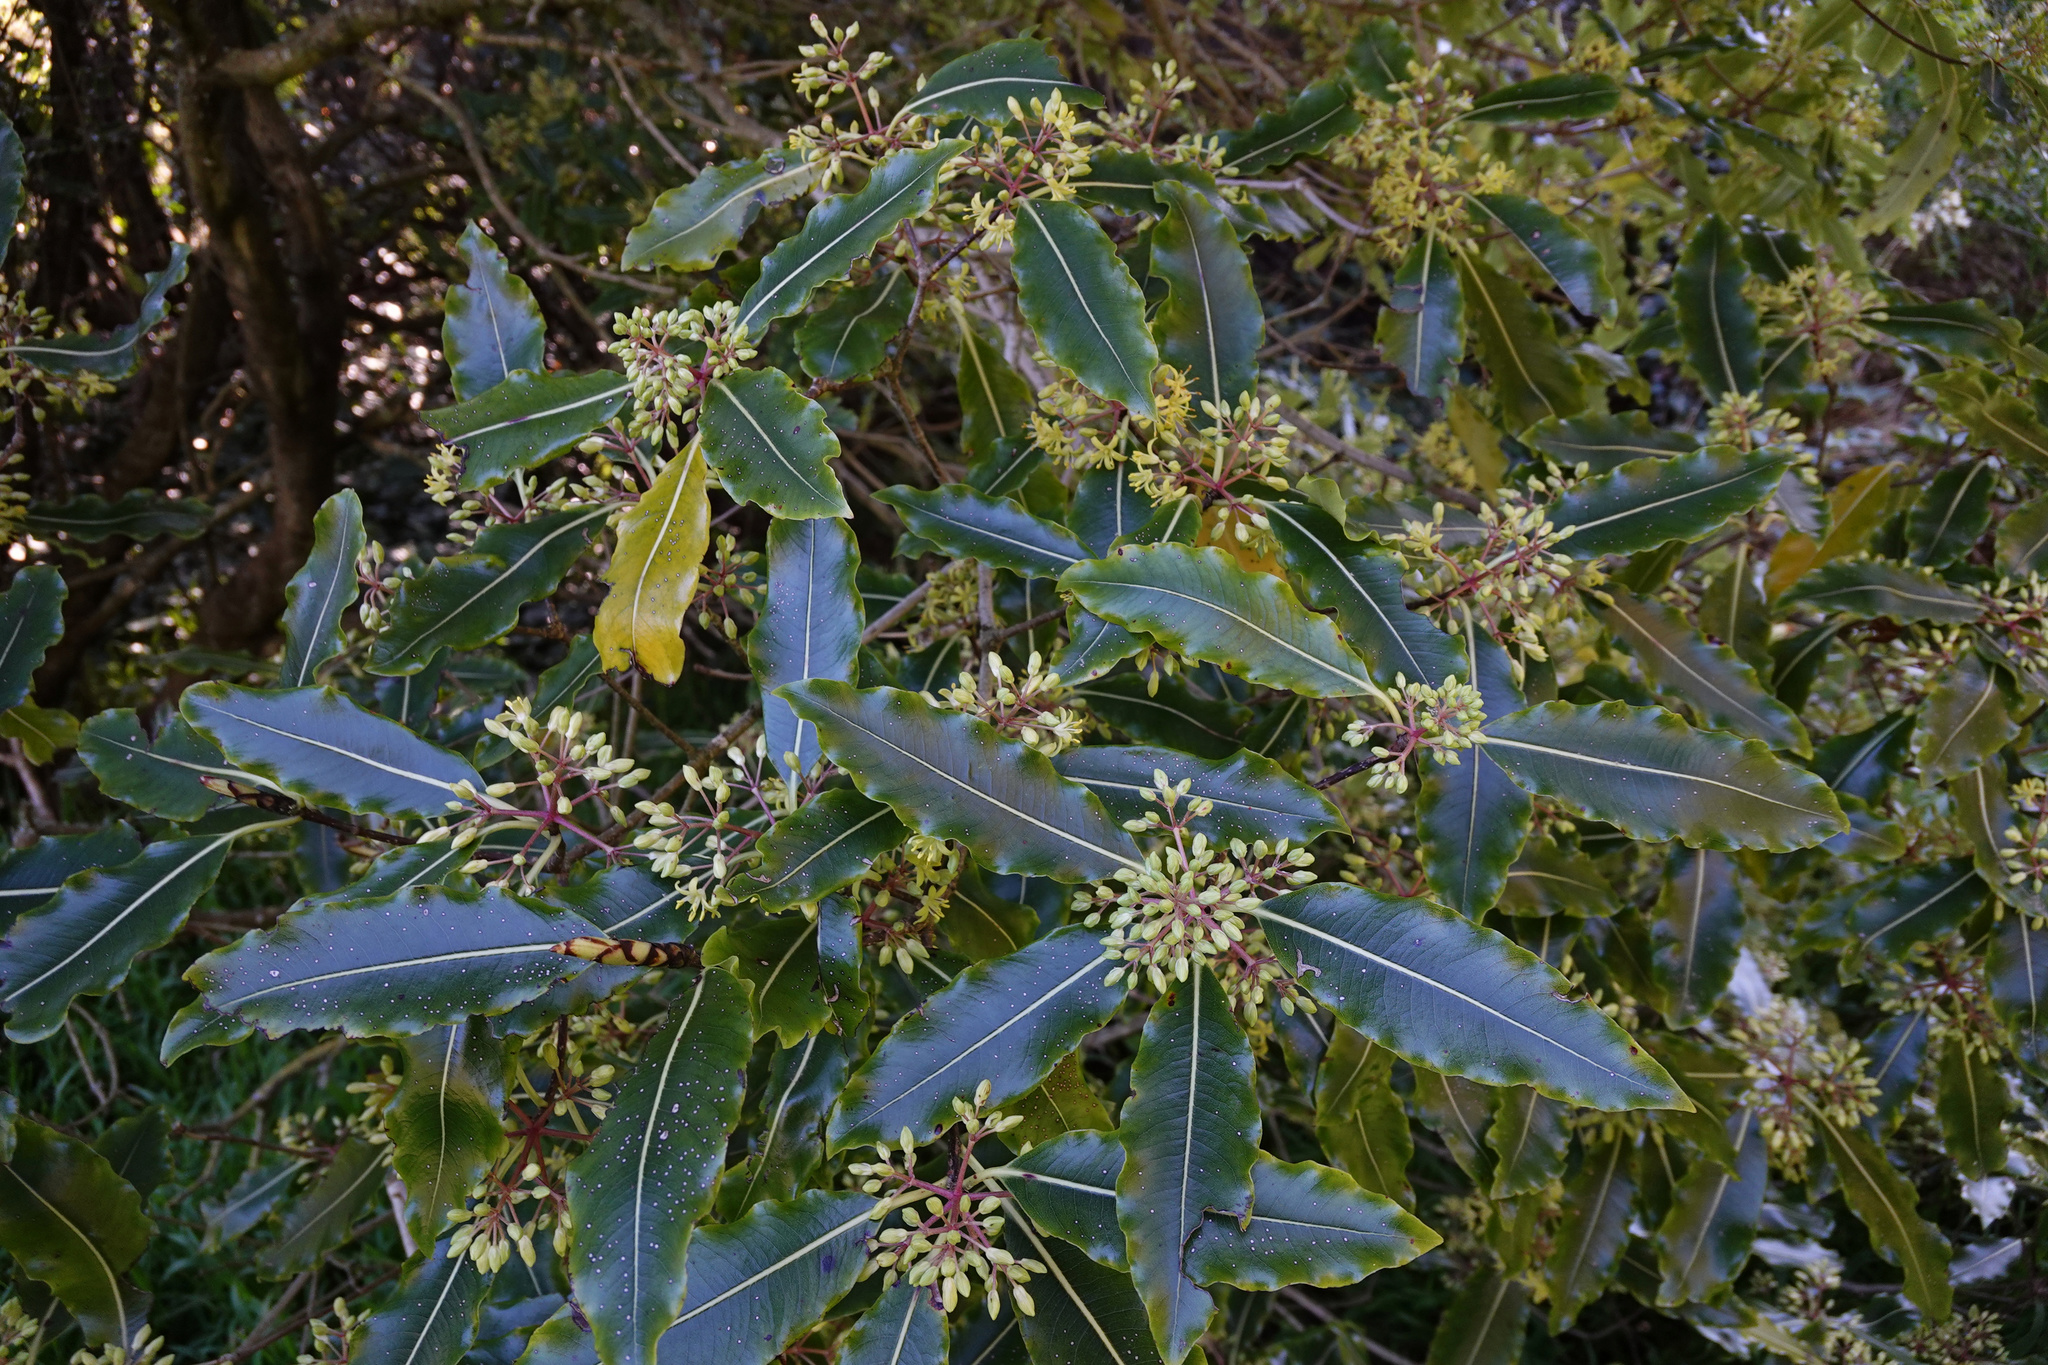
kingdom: Plantae
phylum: Tracheophyta
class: Magnoliopsida
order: Apiales
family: Pittosporaceae
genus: Pittosporum
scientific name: Pittosporum eugenioides
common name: Lemonwood
